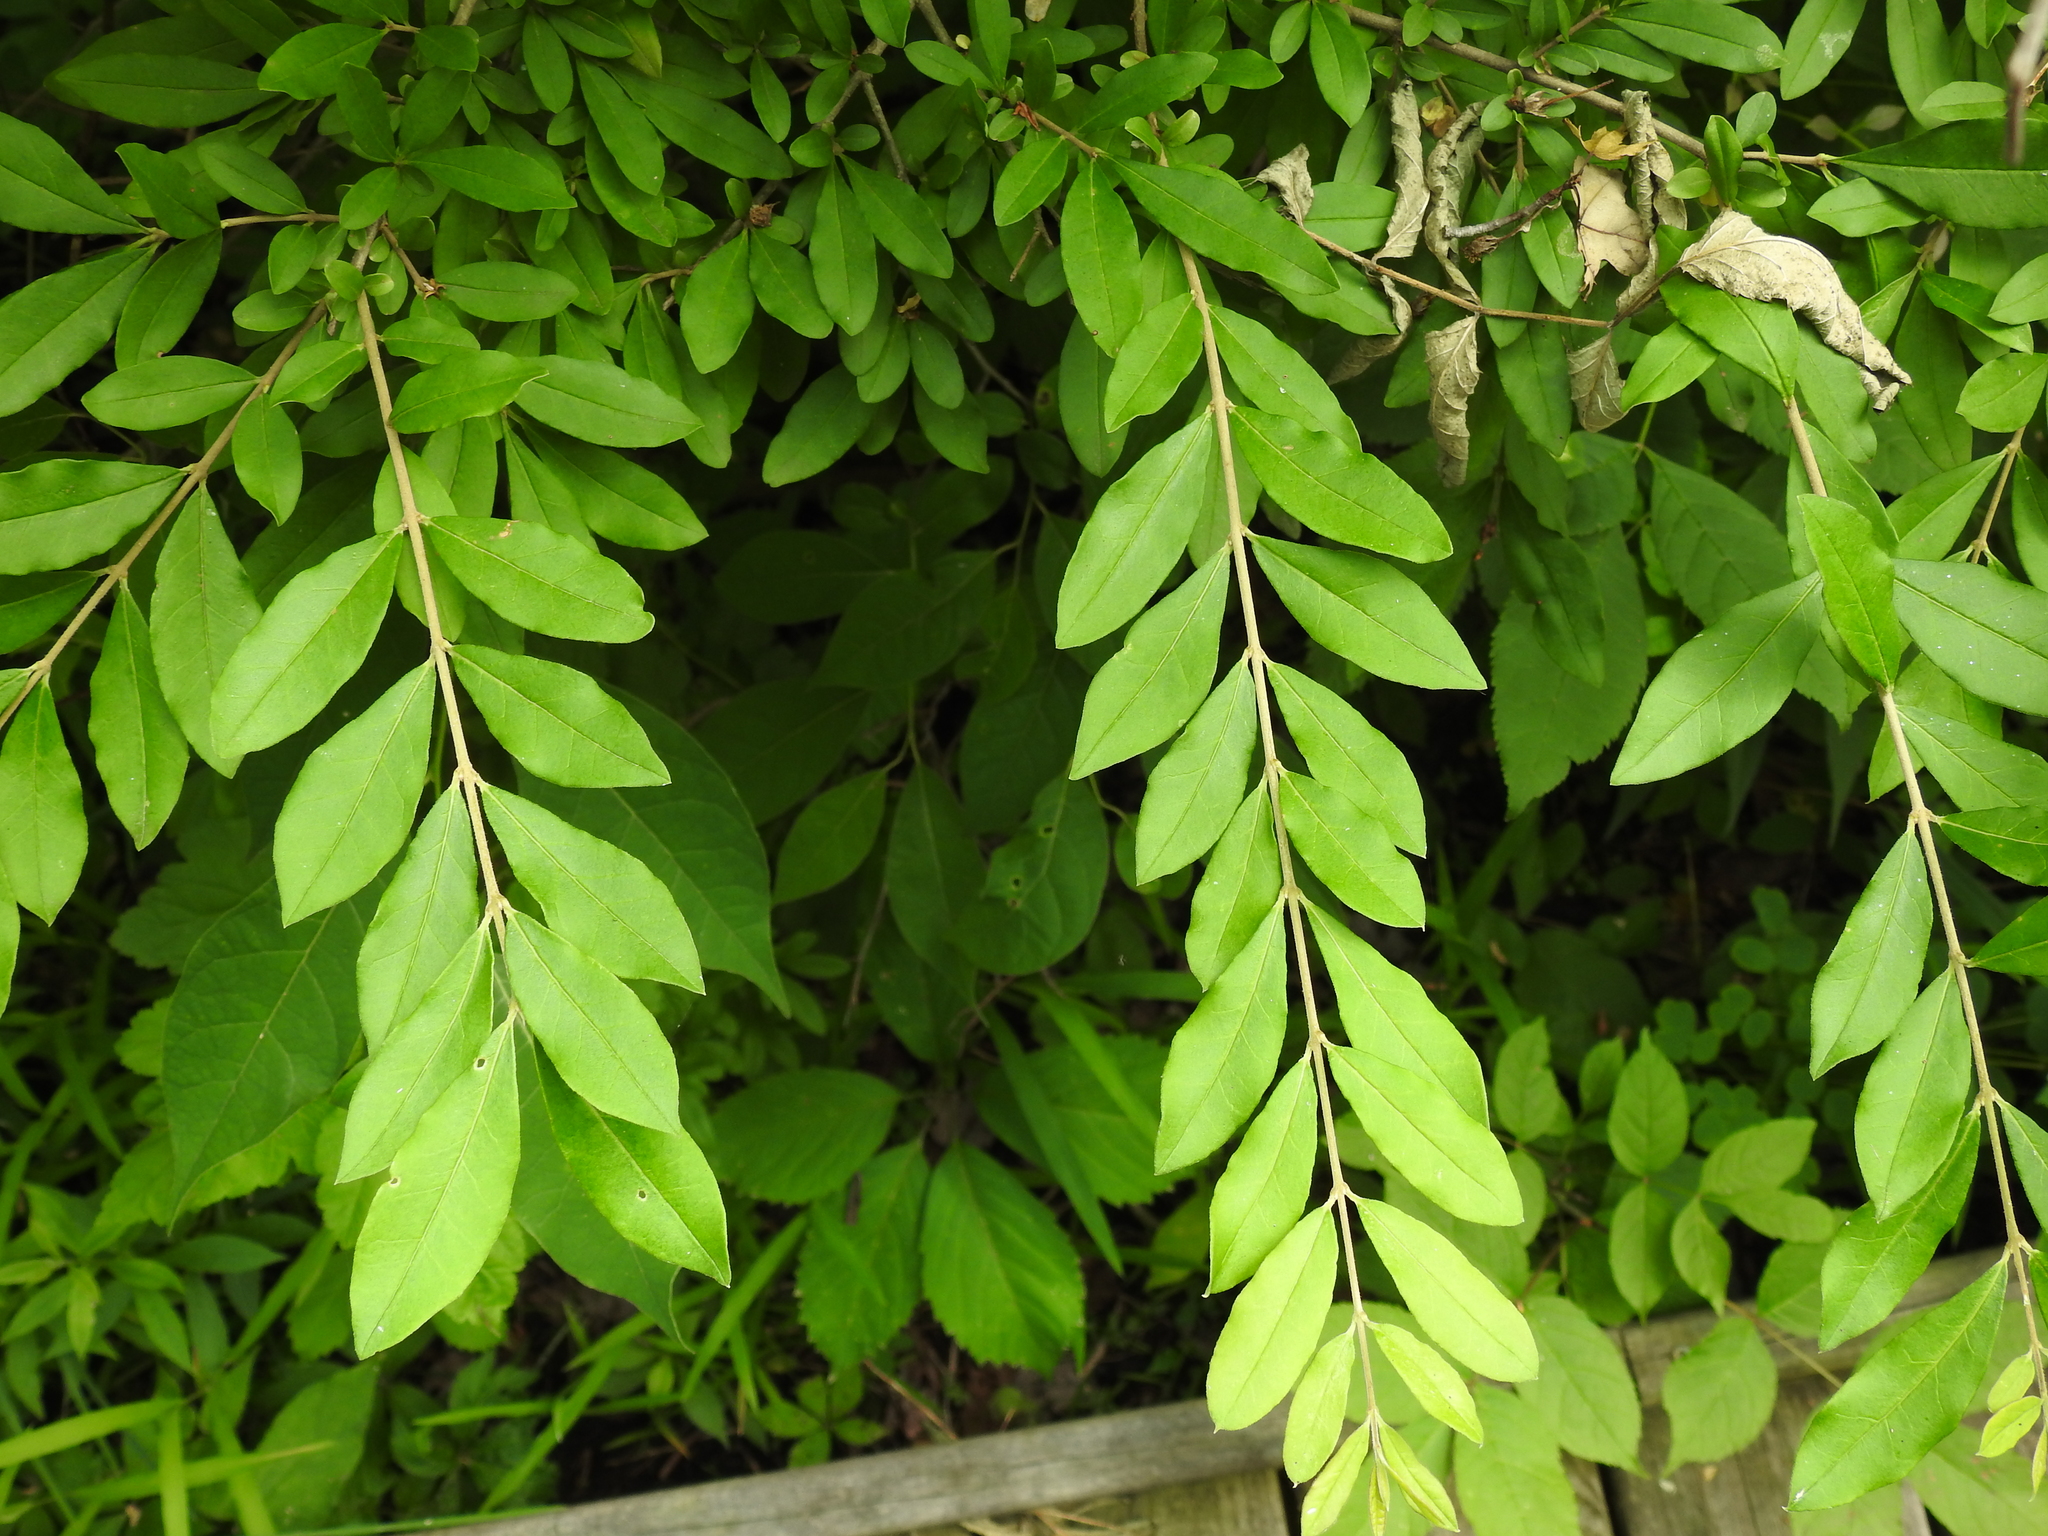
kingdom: Plantae
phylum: Tracheophyta
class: Magnoliopsida
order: Lamiales
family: Oleaceae
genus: Ligustrum
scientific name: Ligustrum obtusifolium
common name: Border privet
